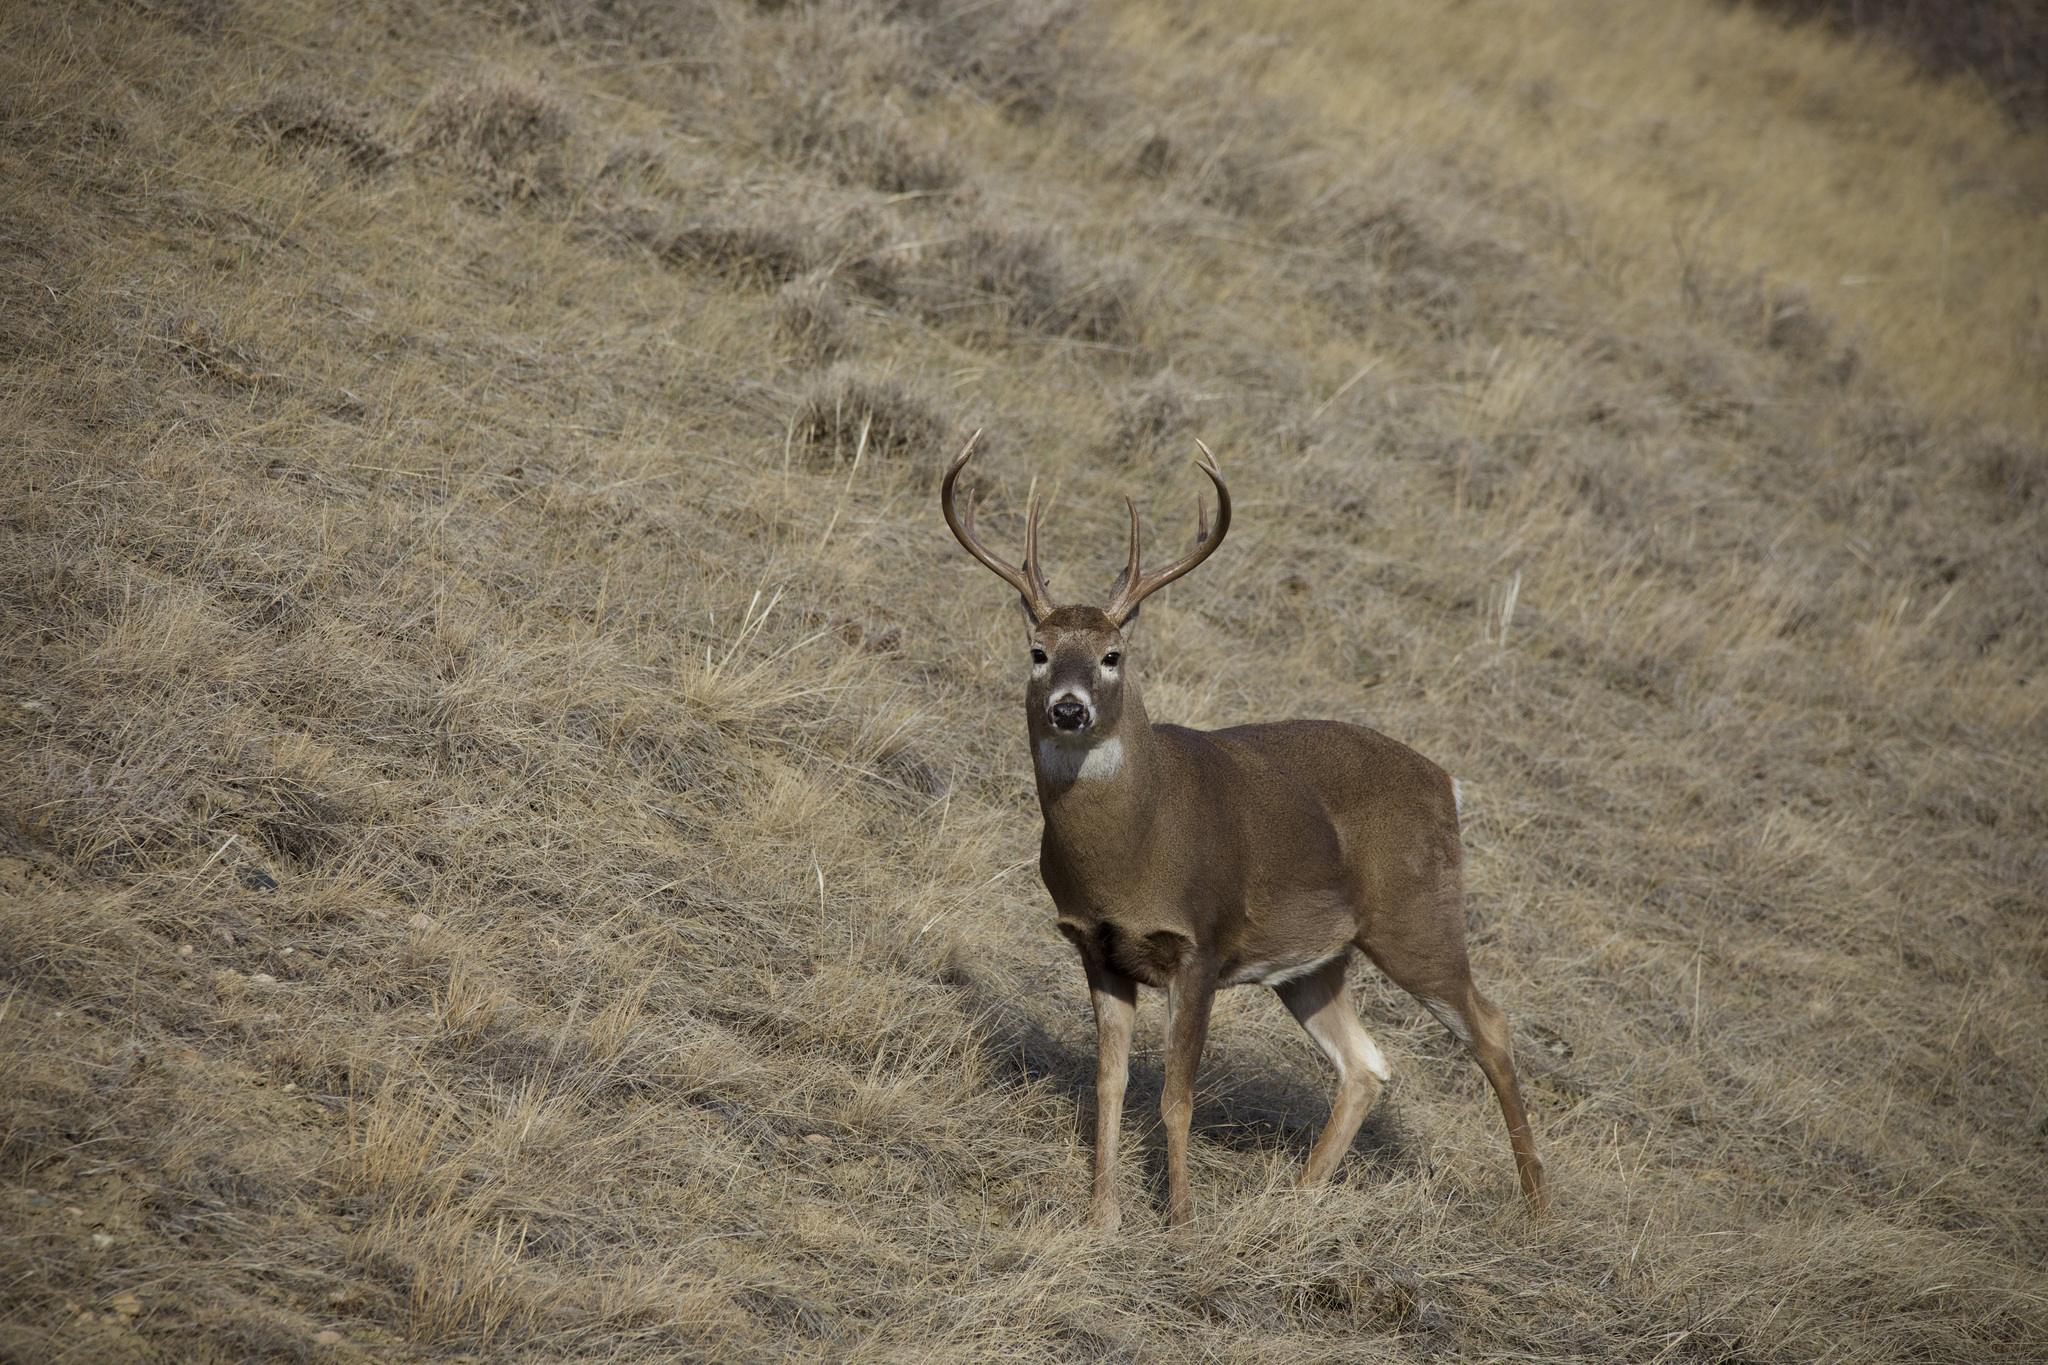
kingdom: Animalia
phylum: Chordata
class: Mammalia
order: Artiodactyla
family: Cervidae
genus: Odocoileus
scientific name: Odocoileus virginianus
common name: White-tailed deer
